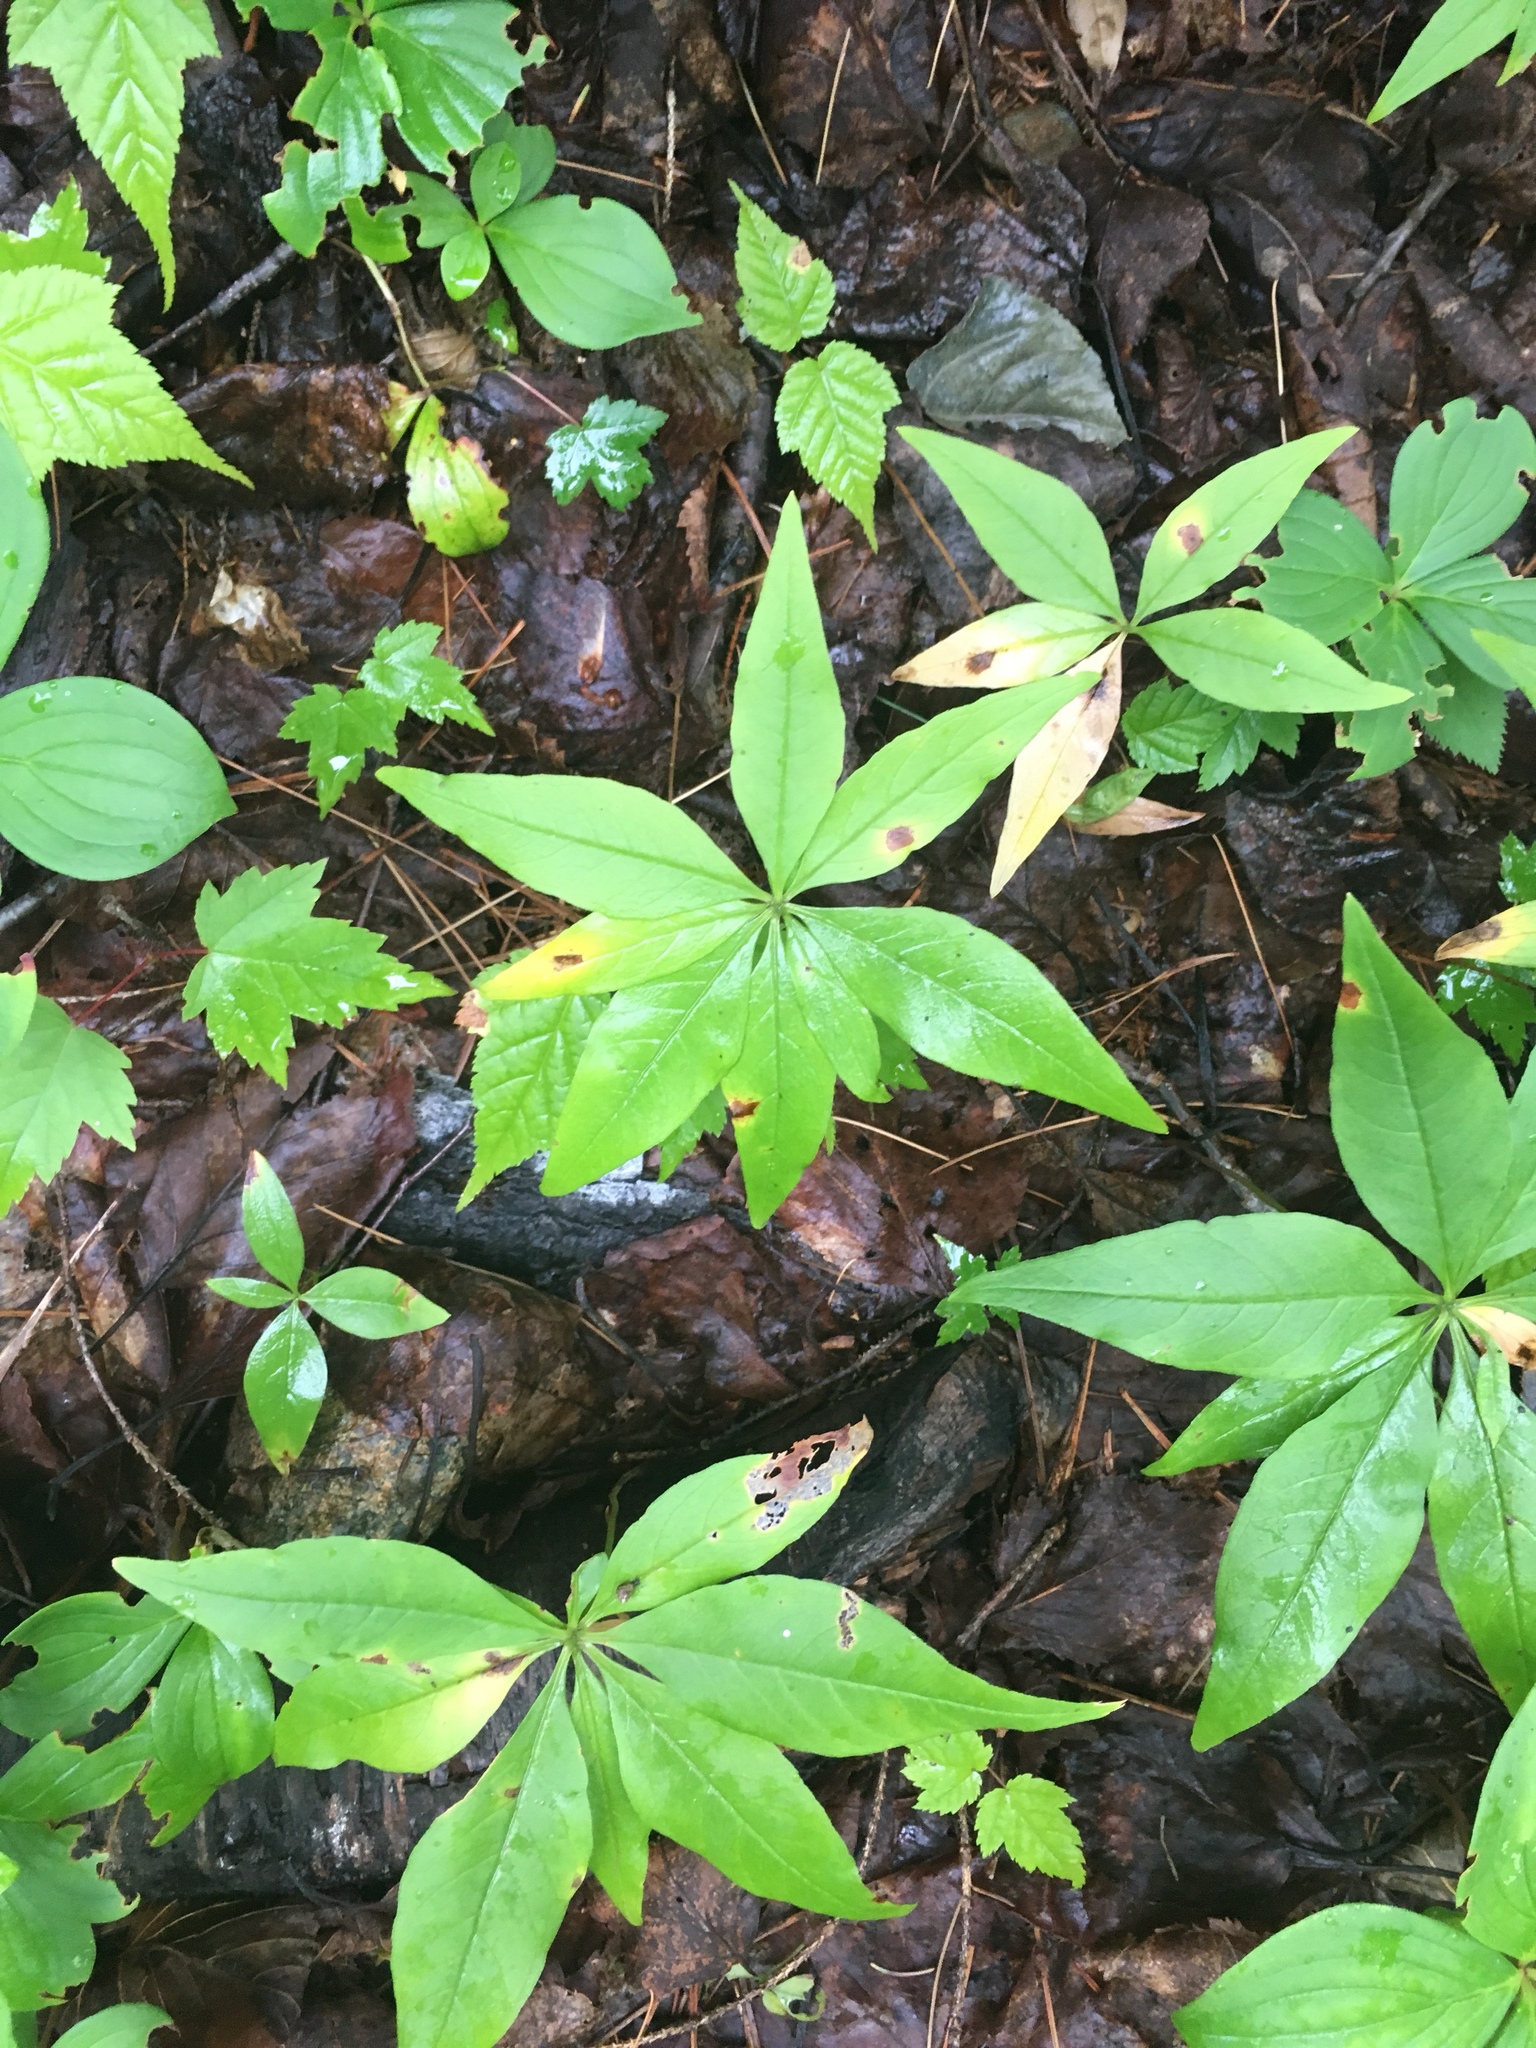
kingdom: Plantae
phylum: Tracheophyta
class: Magnoliopsida
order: Ericales
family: Primulaceae
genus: Lysimachia
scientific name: Lysimachia borealis
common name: American starflower
